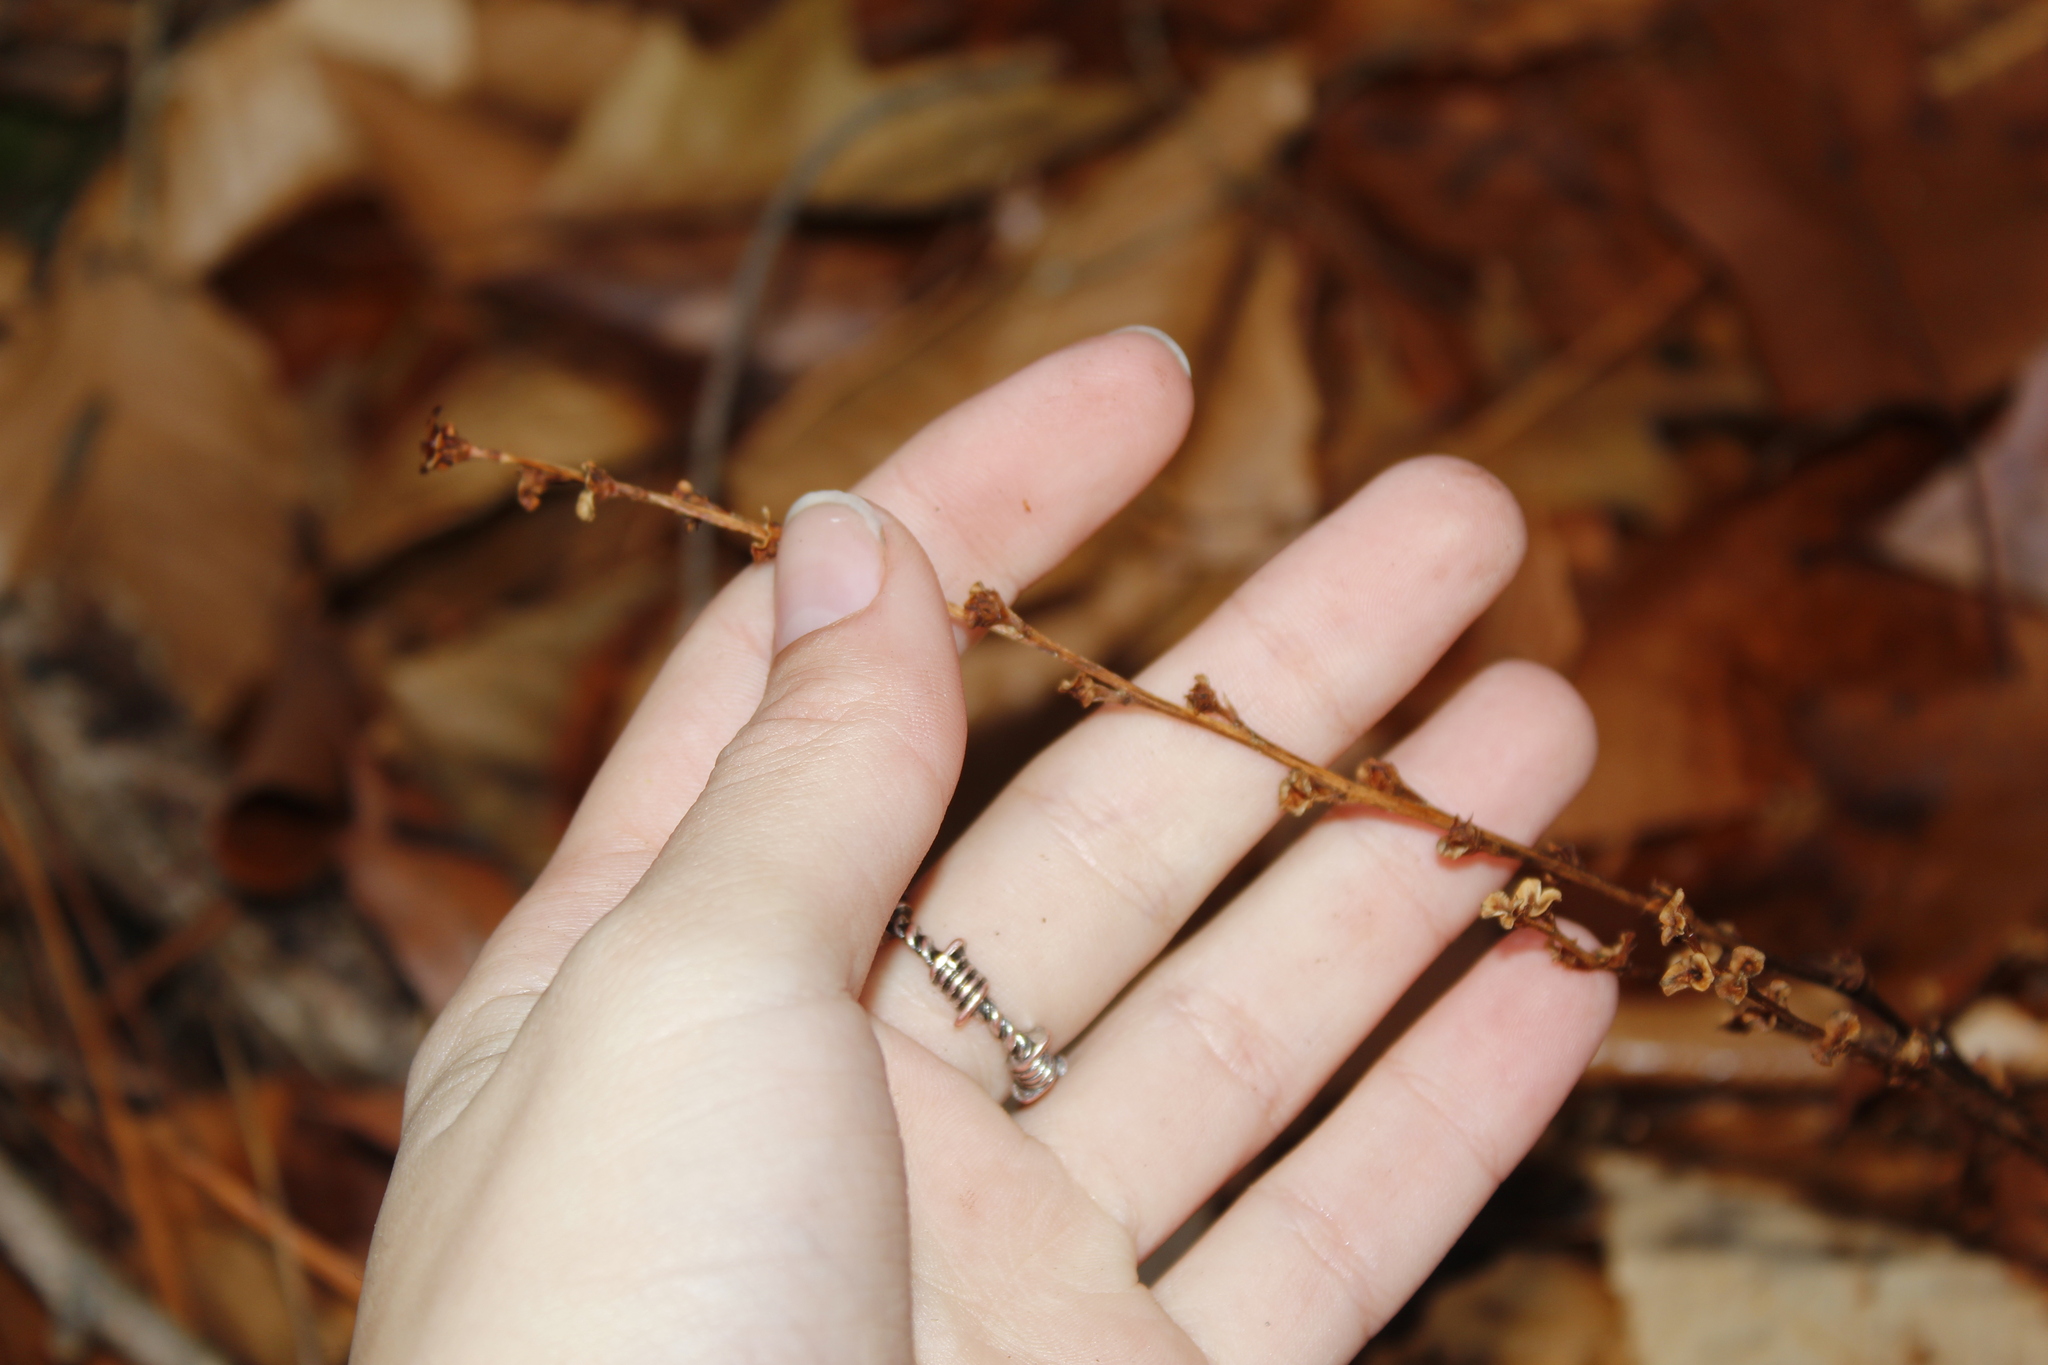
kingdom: Plantae
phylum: Tracheophyta
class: Magnoliopsida
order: Lamiales
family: Orobanchaceae
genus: Epifagus
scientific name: Epifagus virginiana
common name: Beechdrops
